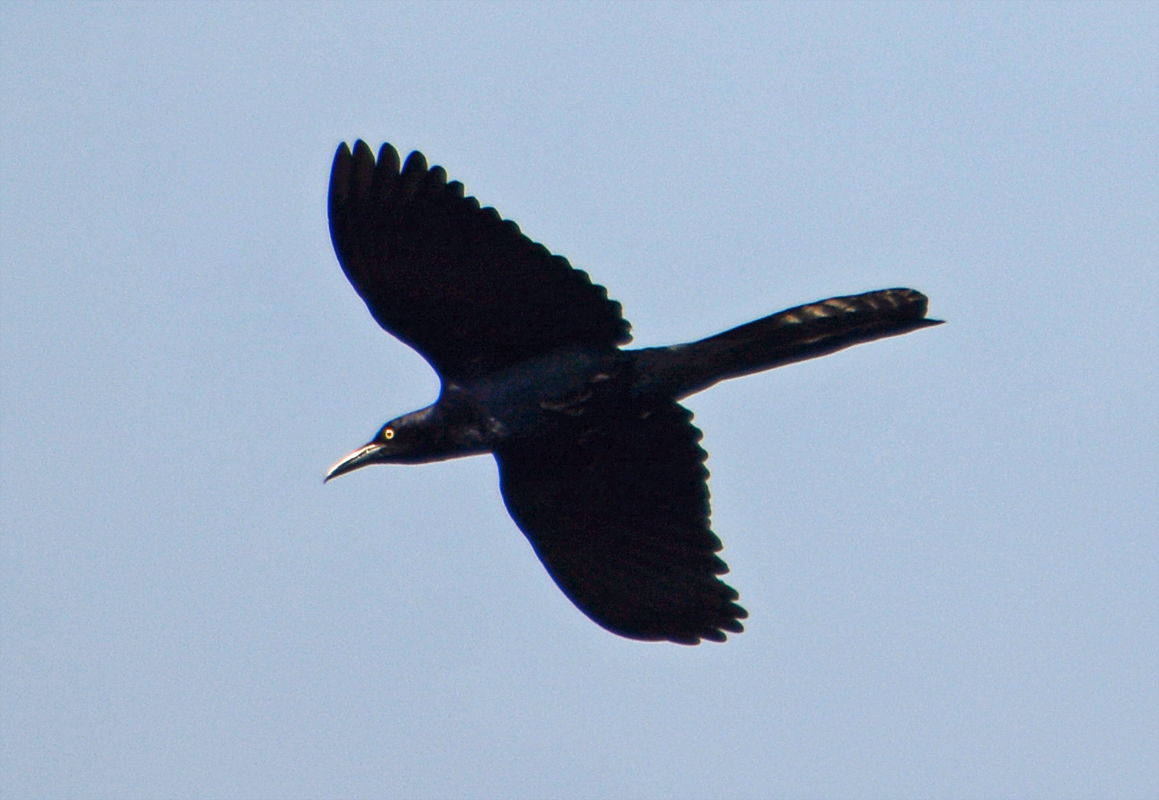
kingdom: Animalia
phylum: Chordata
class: Aves
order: Passeriformes
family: Icteridae
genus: Quiscalus
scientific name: Quiscalus mexicanus
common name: Great-tailed grackle
